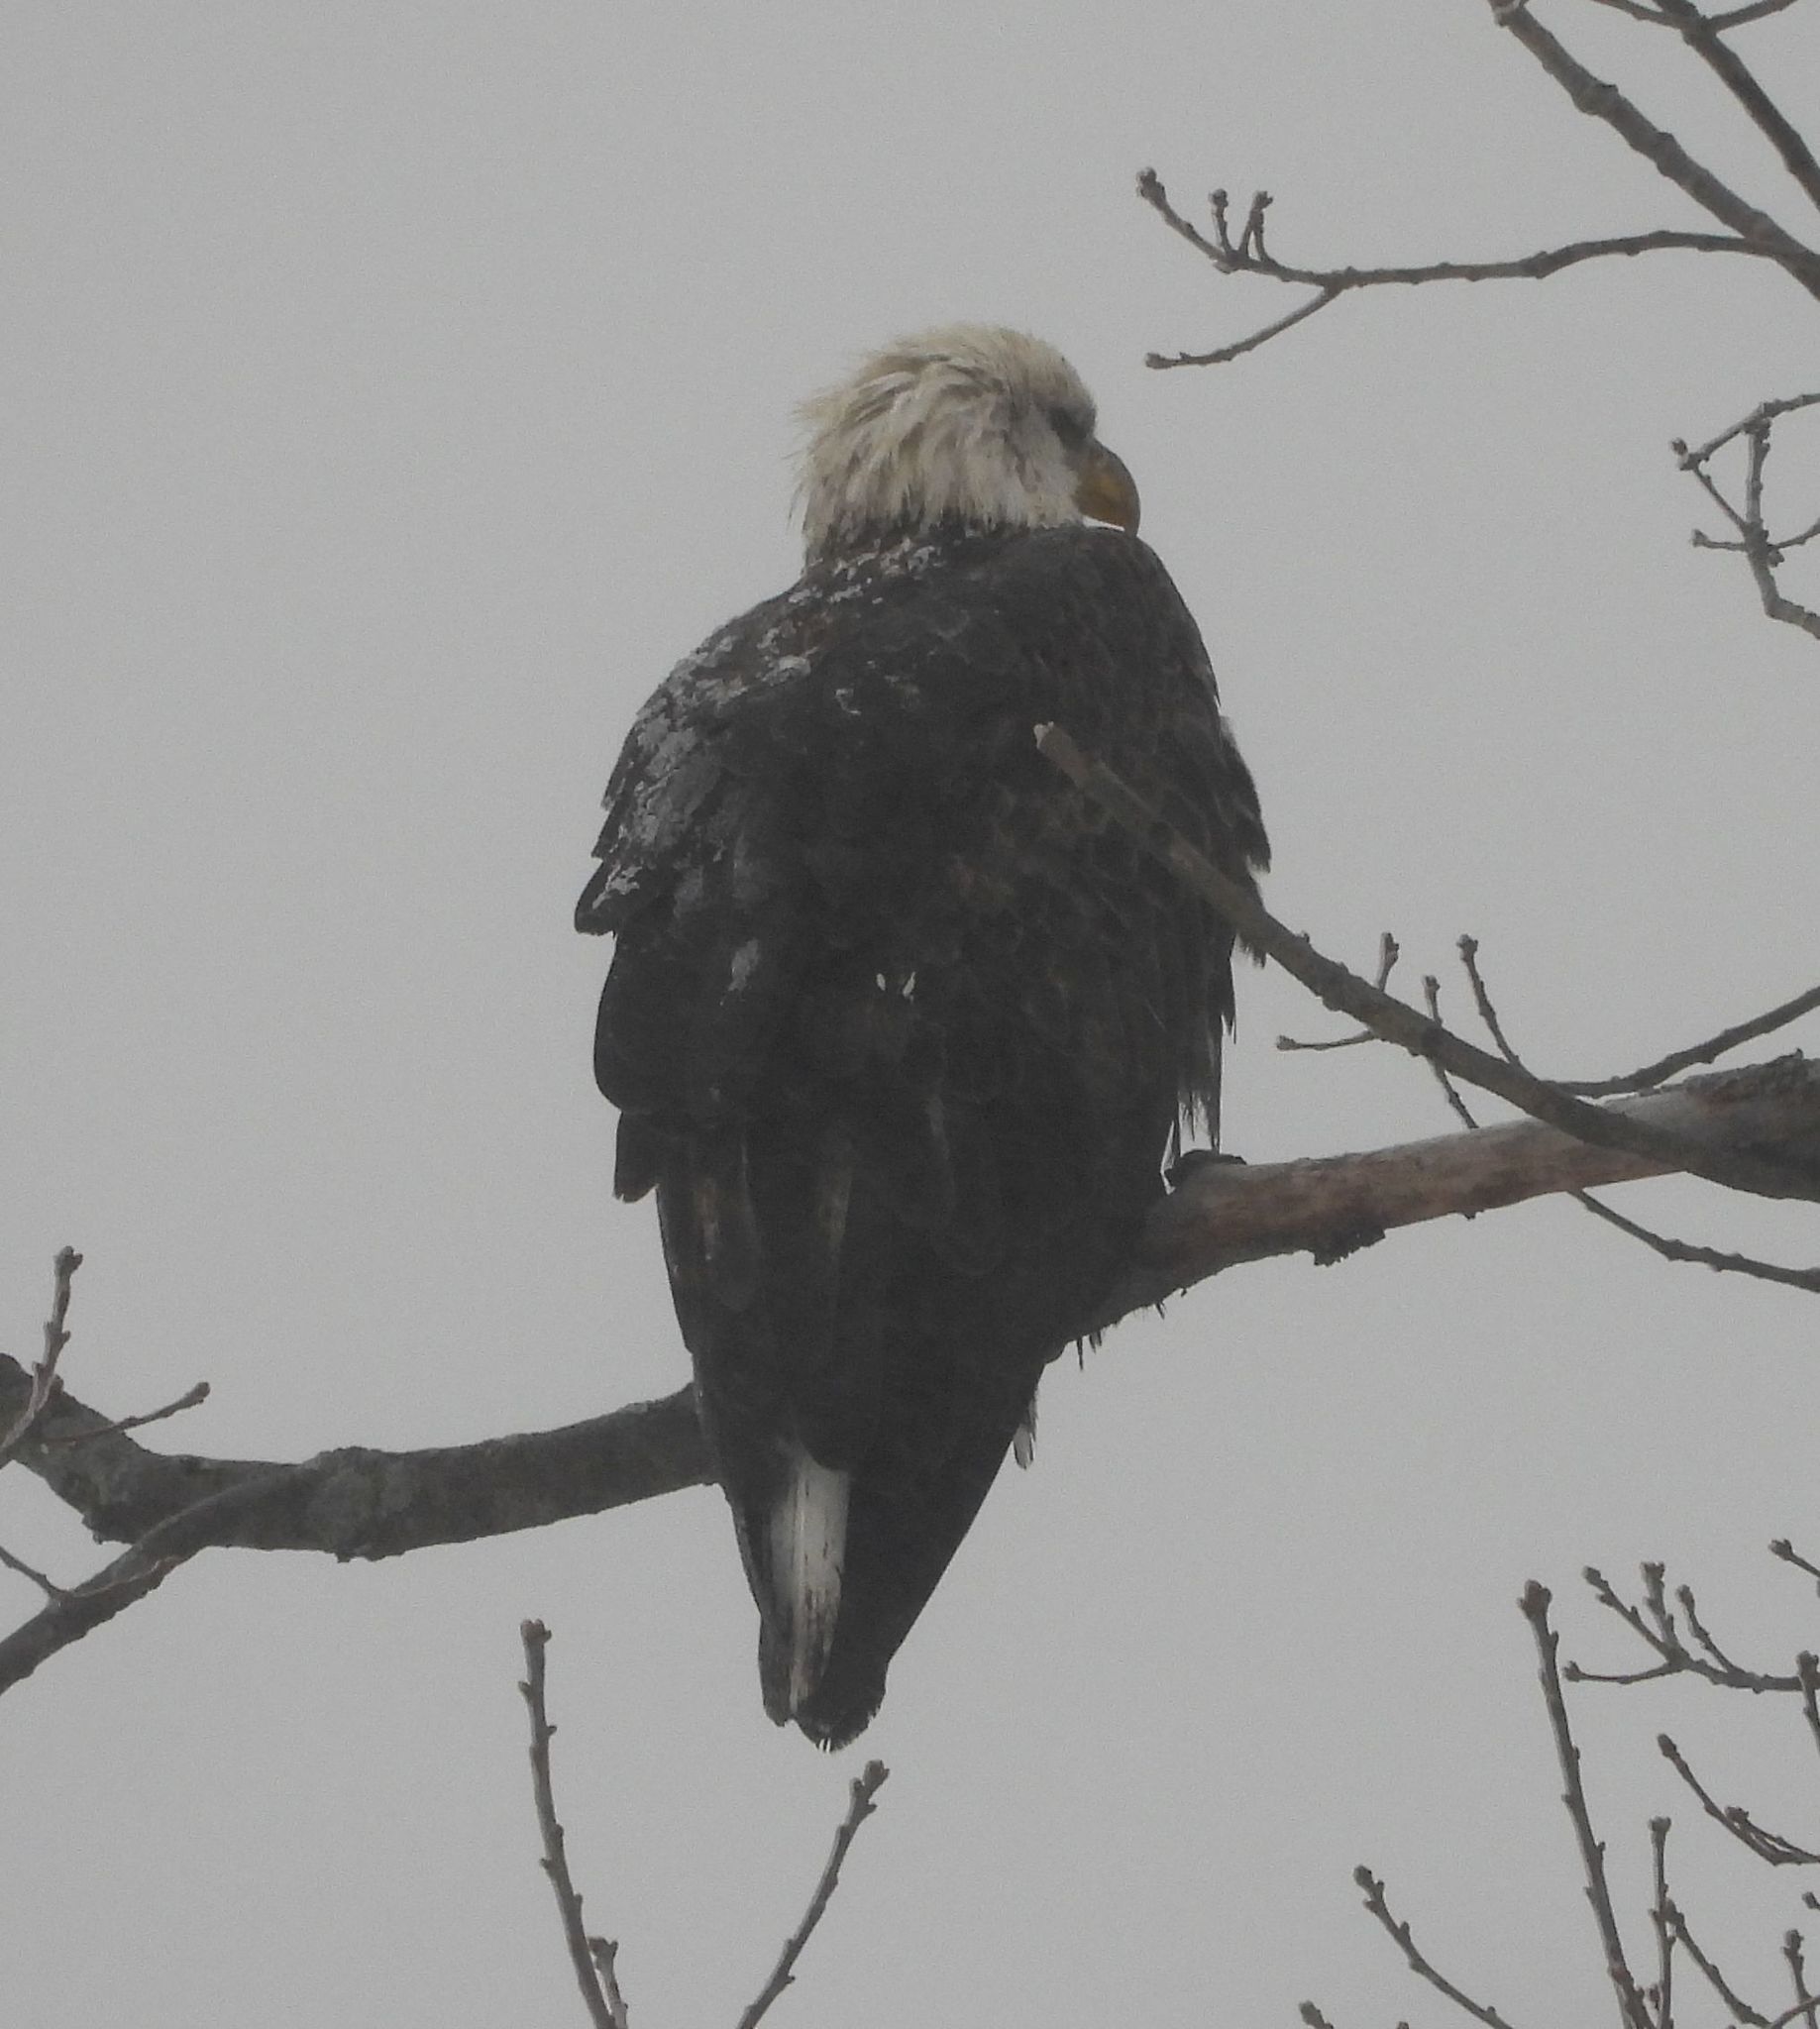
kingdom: Animalia
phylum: Chordata
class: Aves
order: Accipitriformes
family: Accipitridae
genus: Haliaeetus
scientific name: Haliaeetus leucocephalus
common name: Bald eagle
